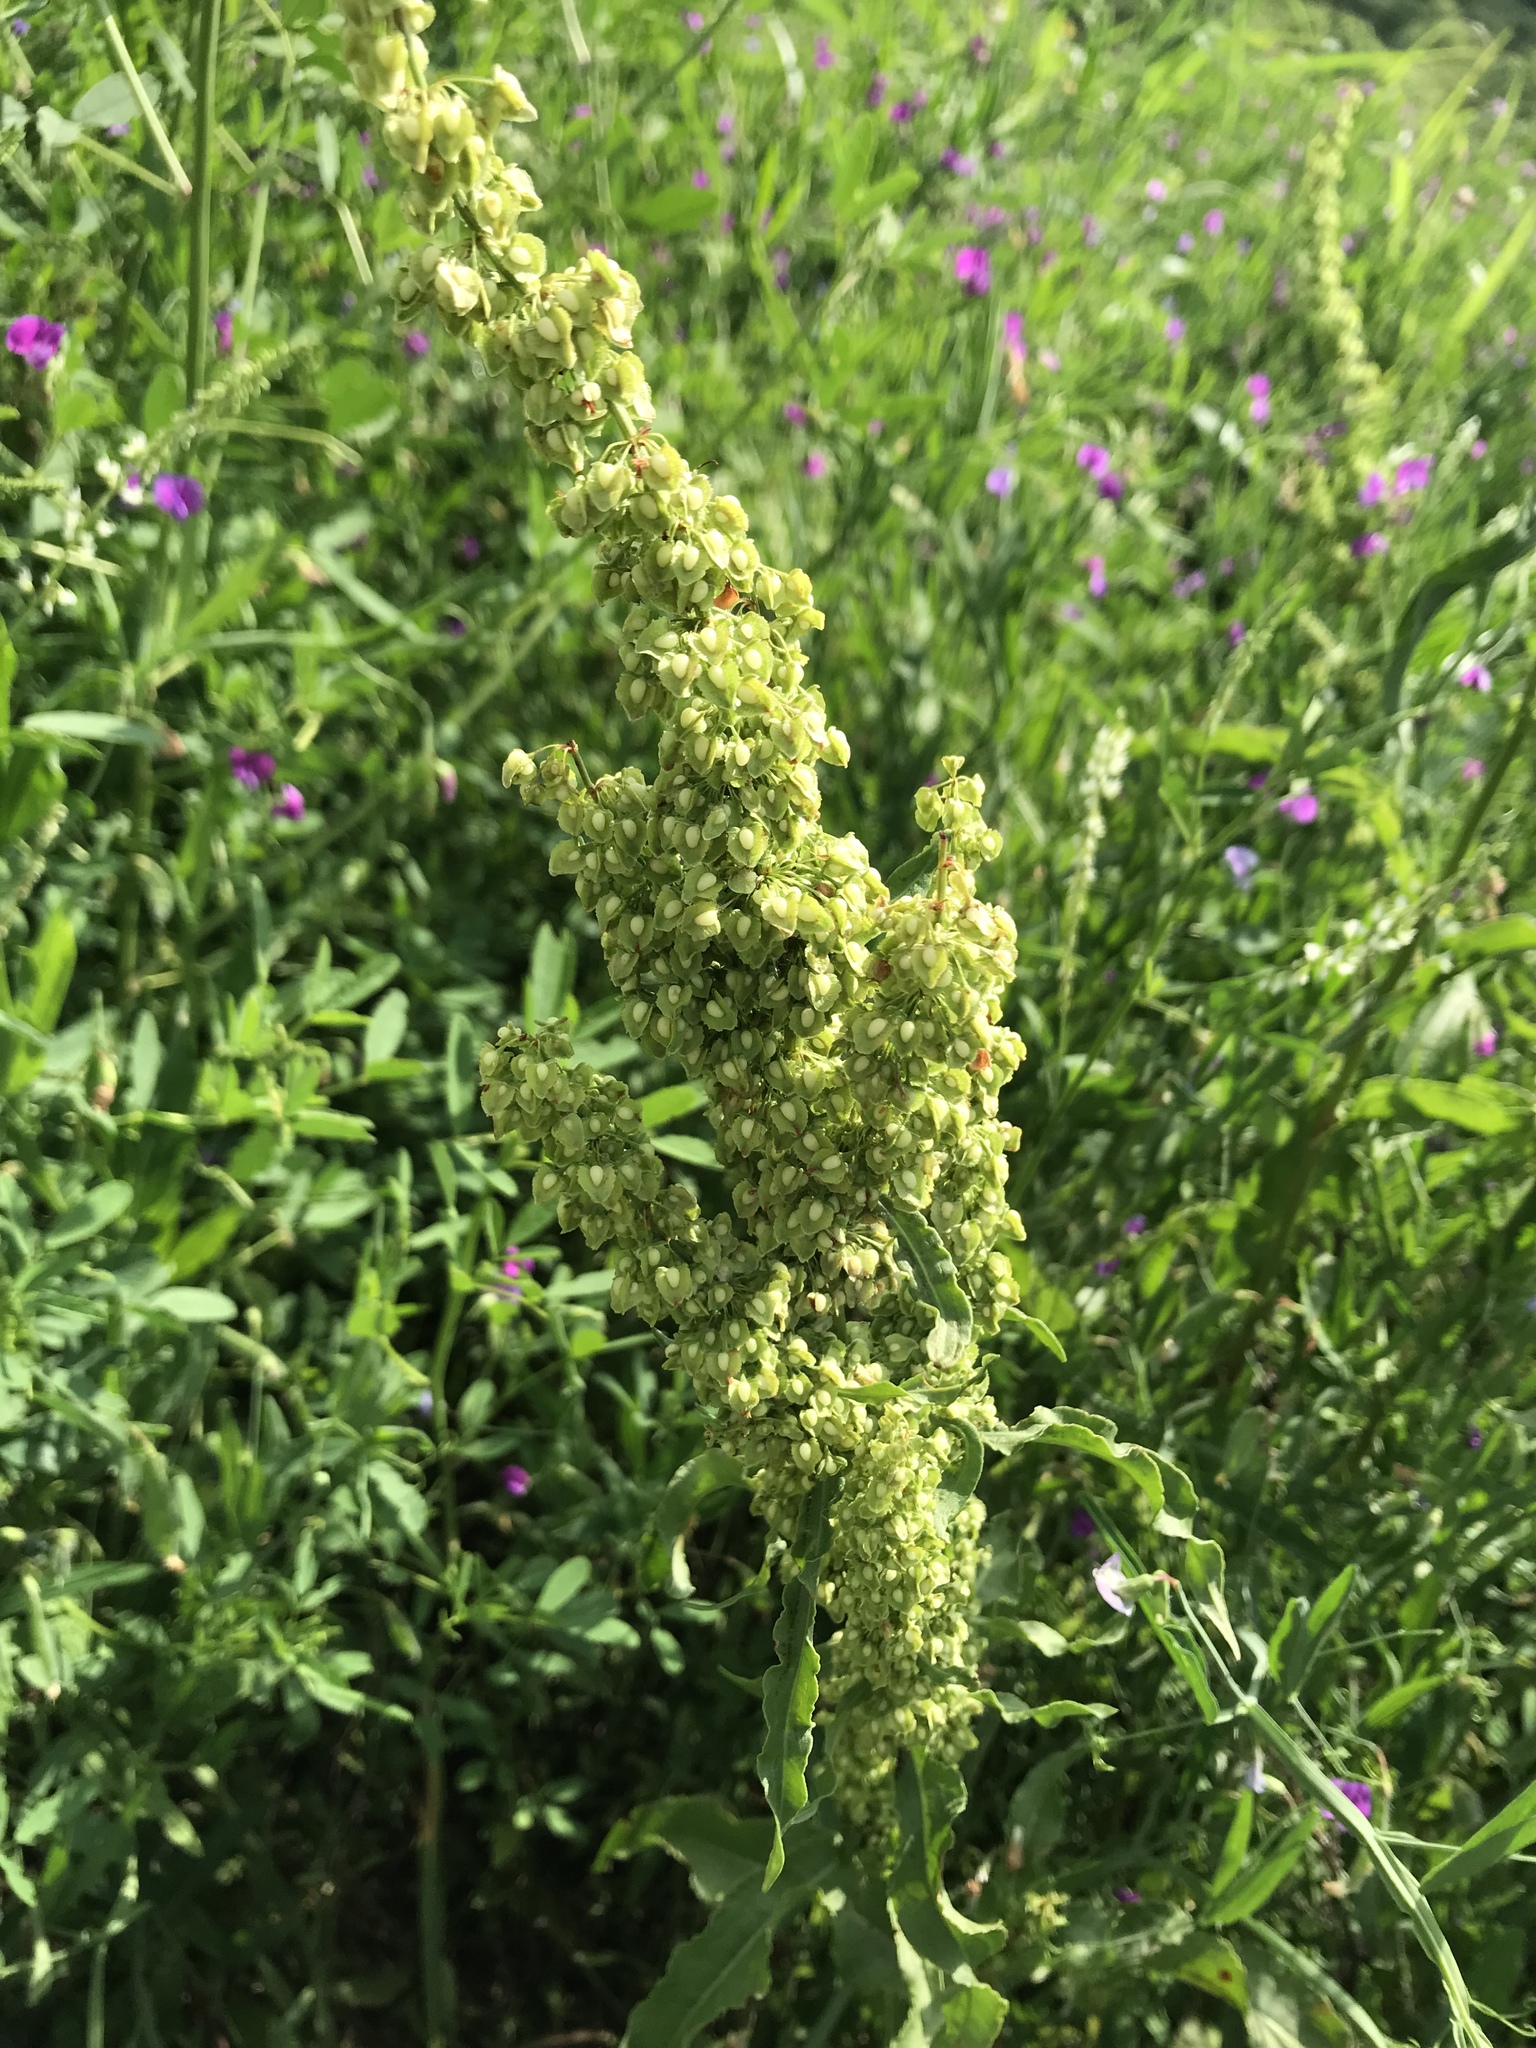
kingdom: Plantae
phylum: Tracheophyta
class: Magnoliopsida
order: Caryophyllales
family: Polygonaceae
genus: Rumex
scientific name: Rumex crispus
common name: Curled dock
